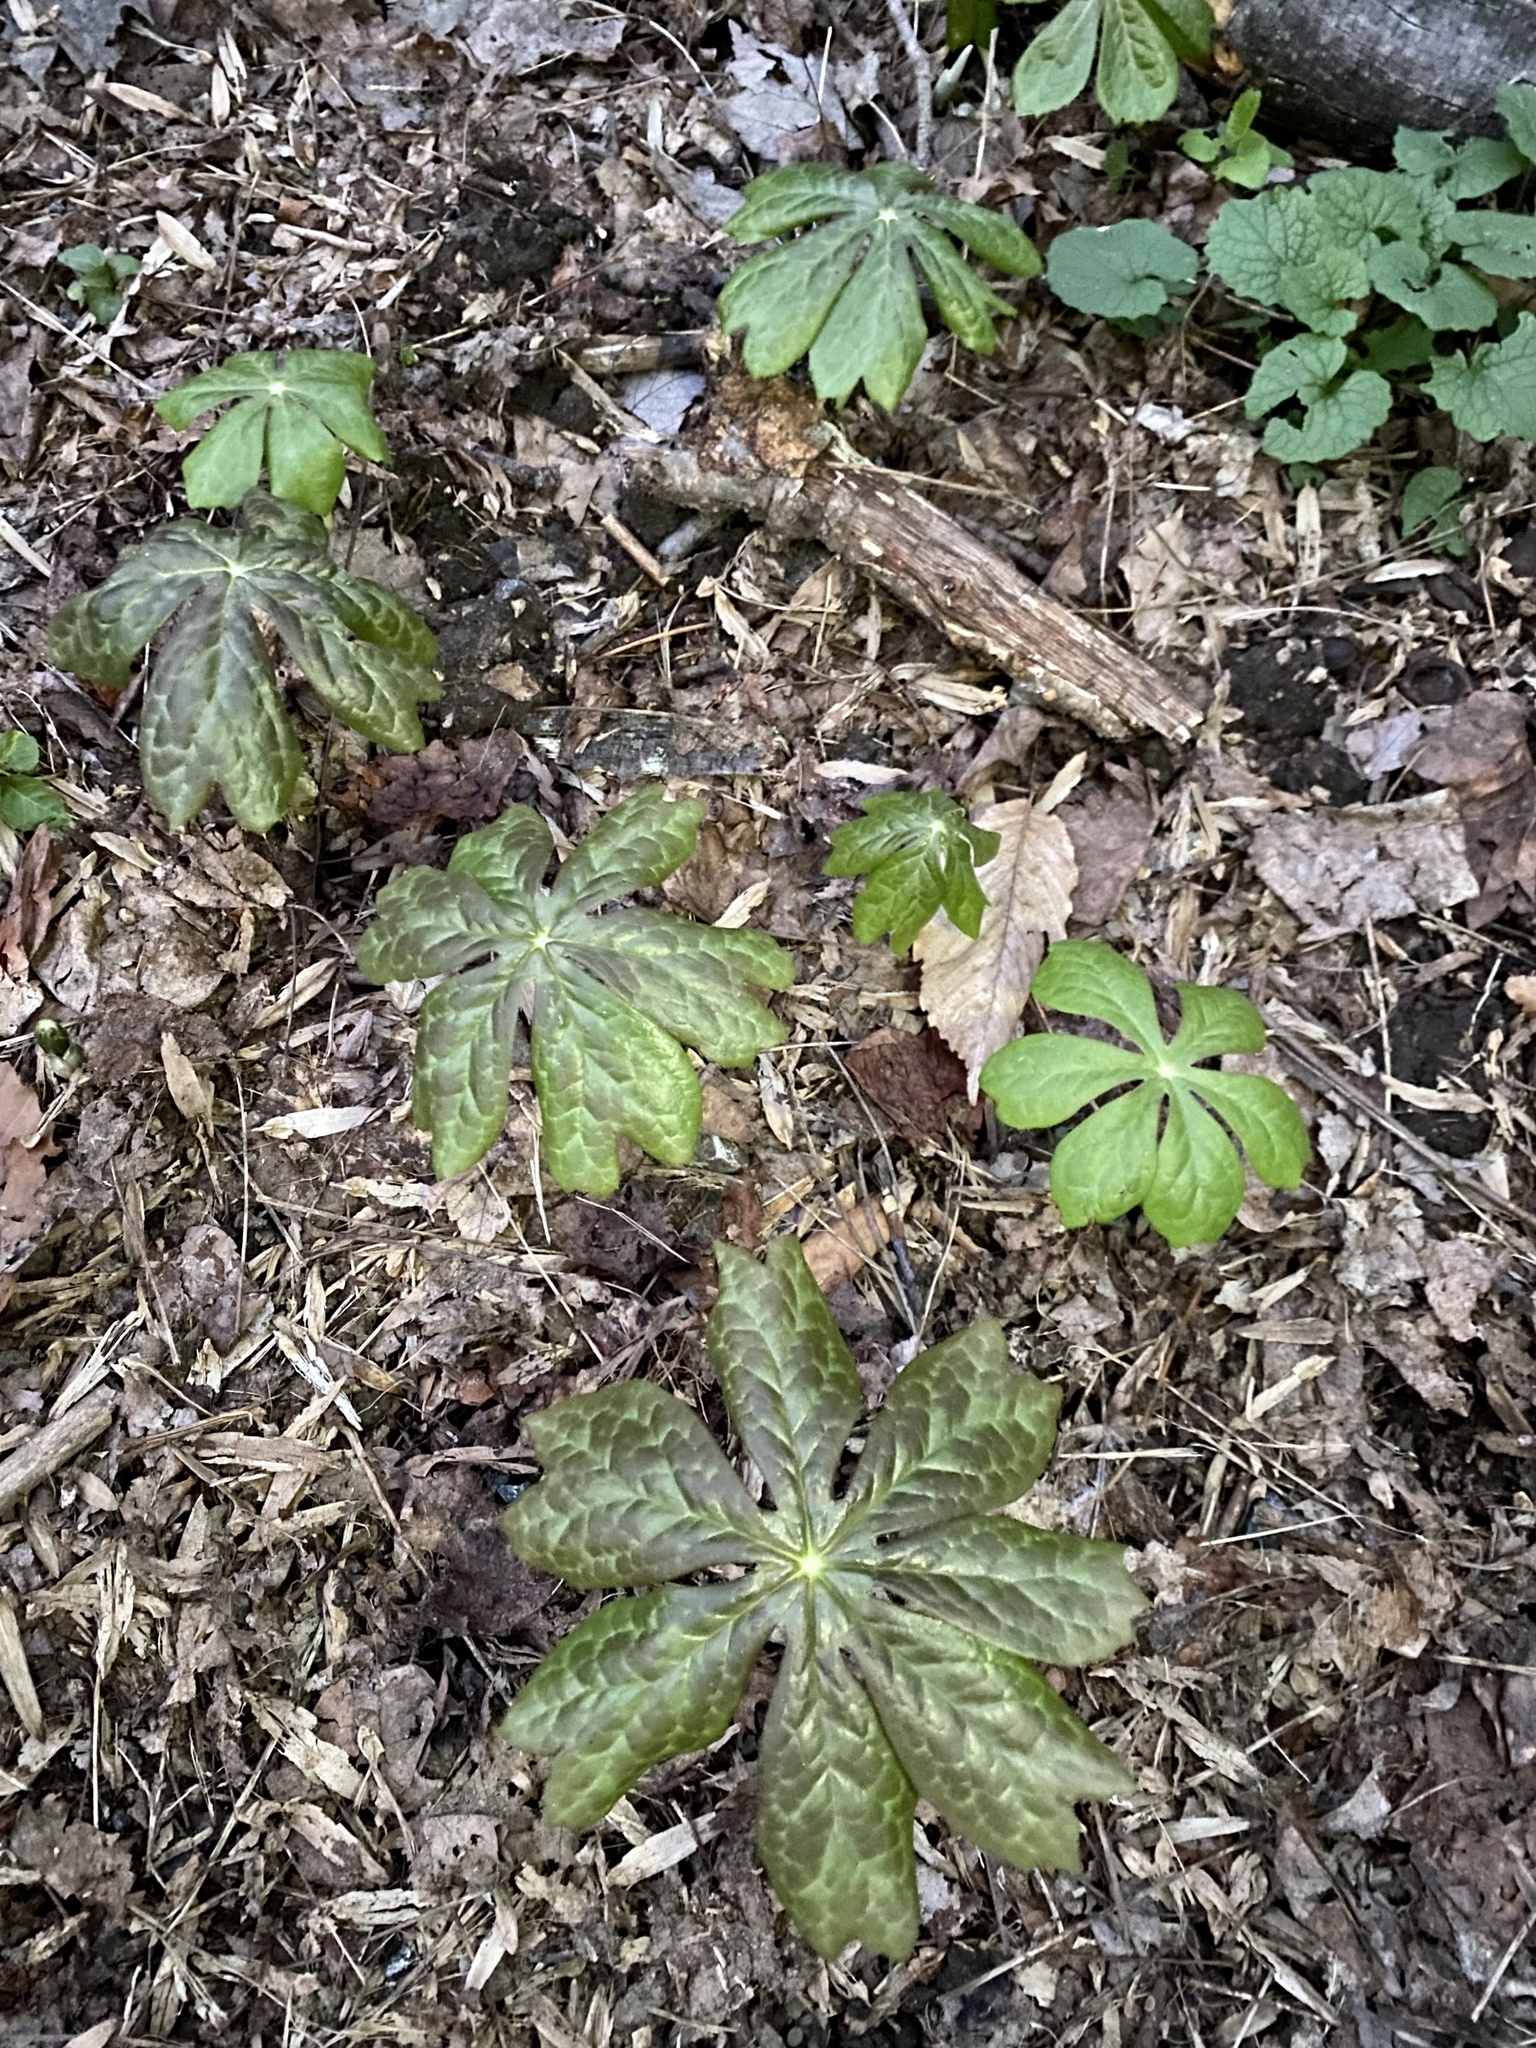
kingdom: Plantae
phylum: Tracheophyta
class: Magnoliopsida
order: Ranunculales
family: Berberidaceae
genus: Podophyllum
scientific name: Podophyllum peltatum
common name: Wild mandrake
